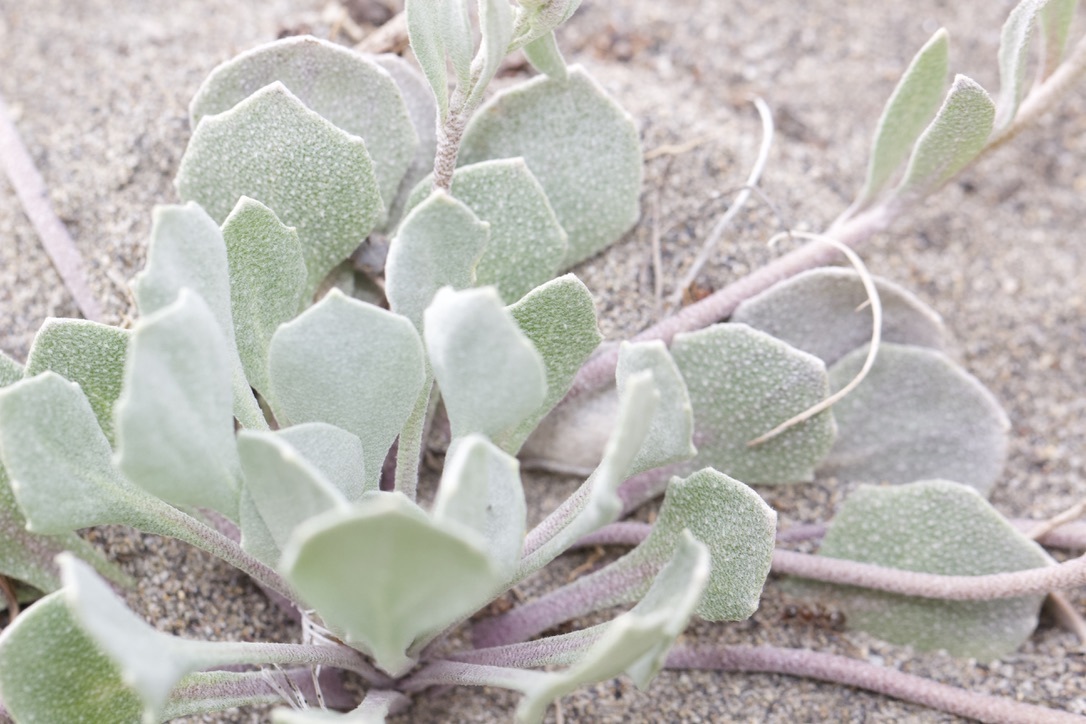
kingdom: Plantae
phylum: Tracheophyta
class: Magnoliopsida
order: Brassicales
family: Brassicaceae
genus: Physaria
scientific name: Physaria didymocarpa
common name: Common twinpod
